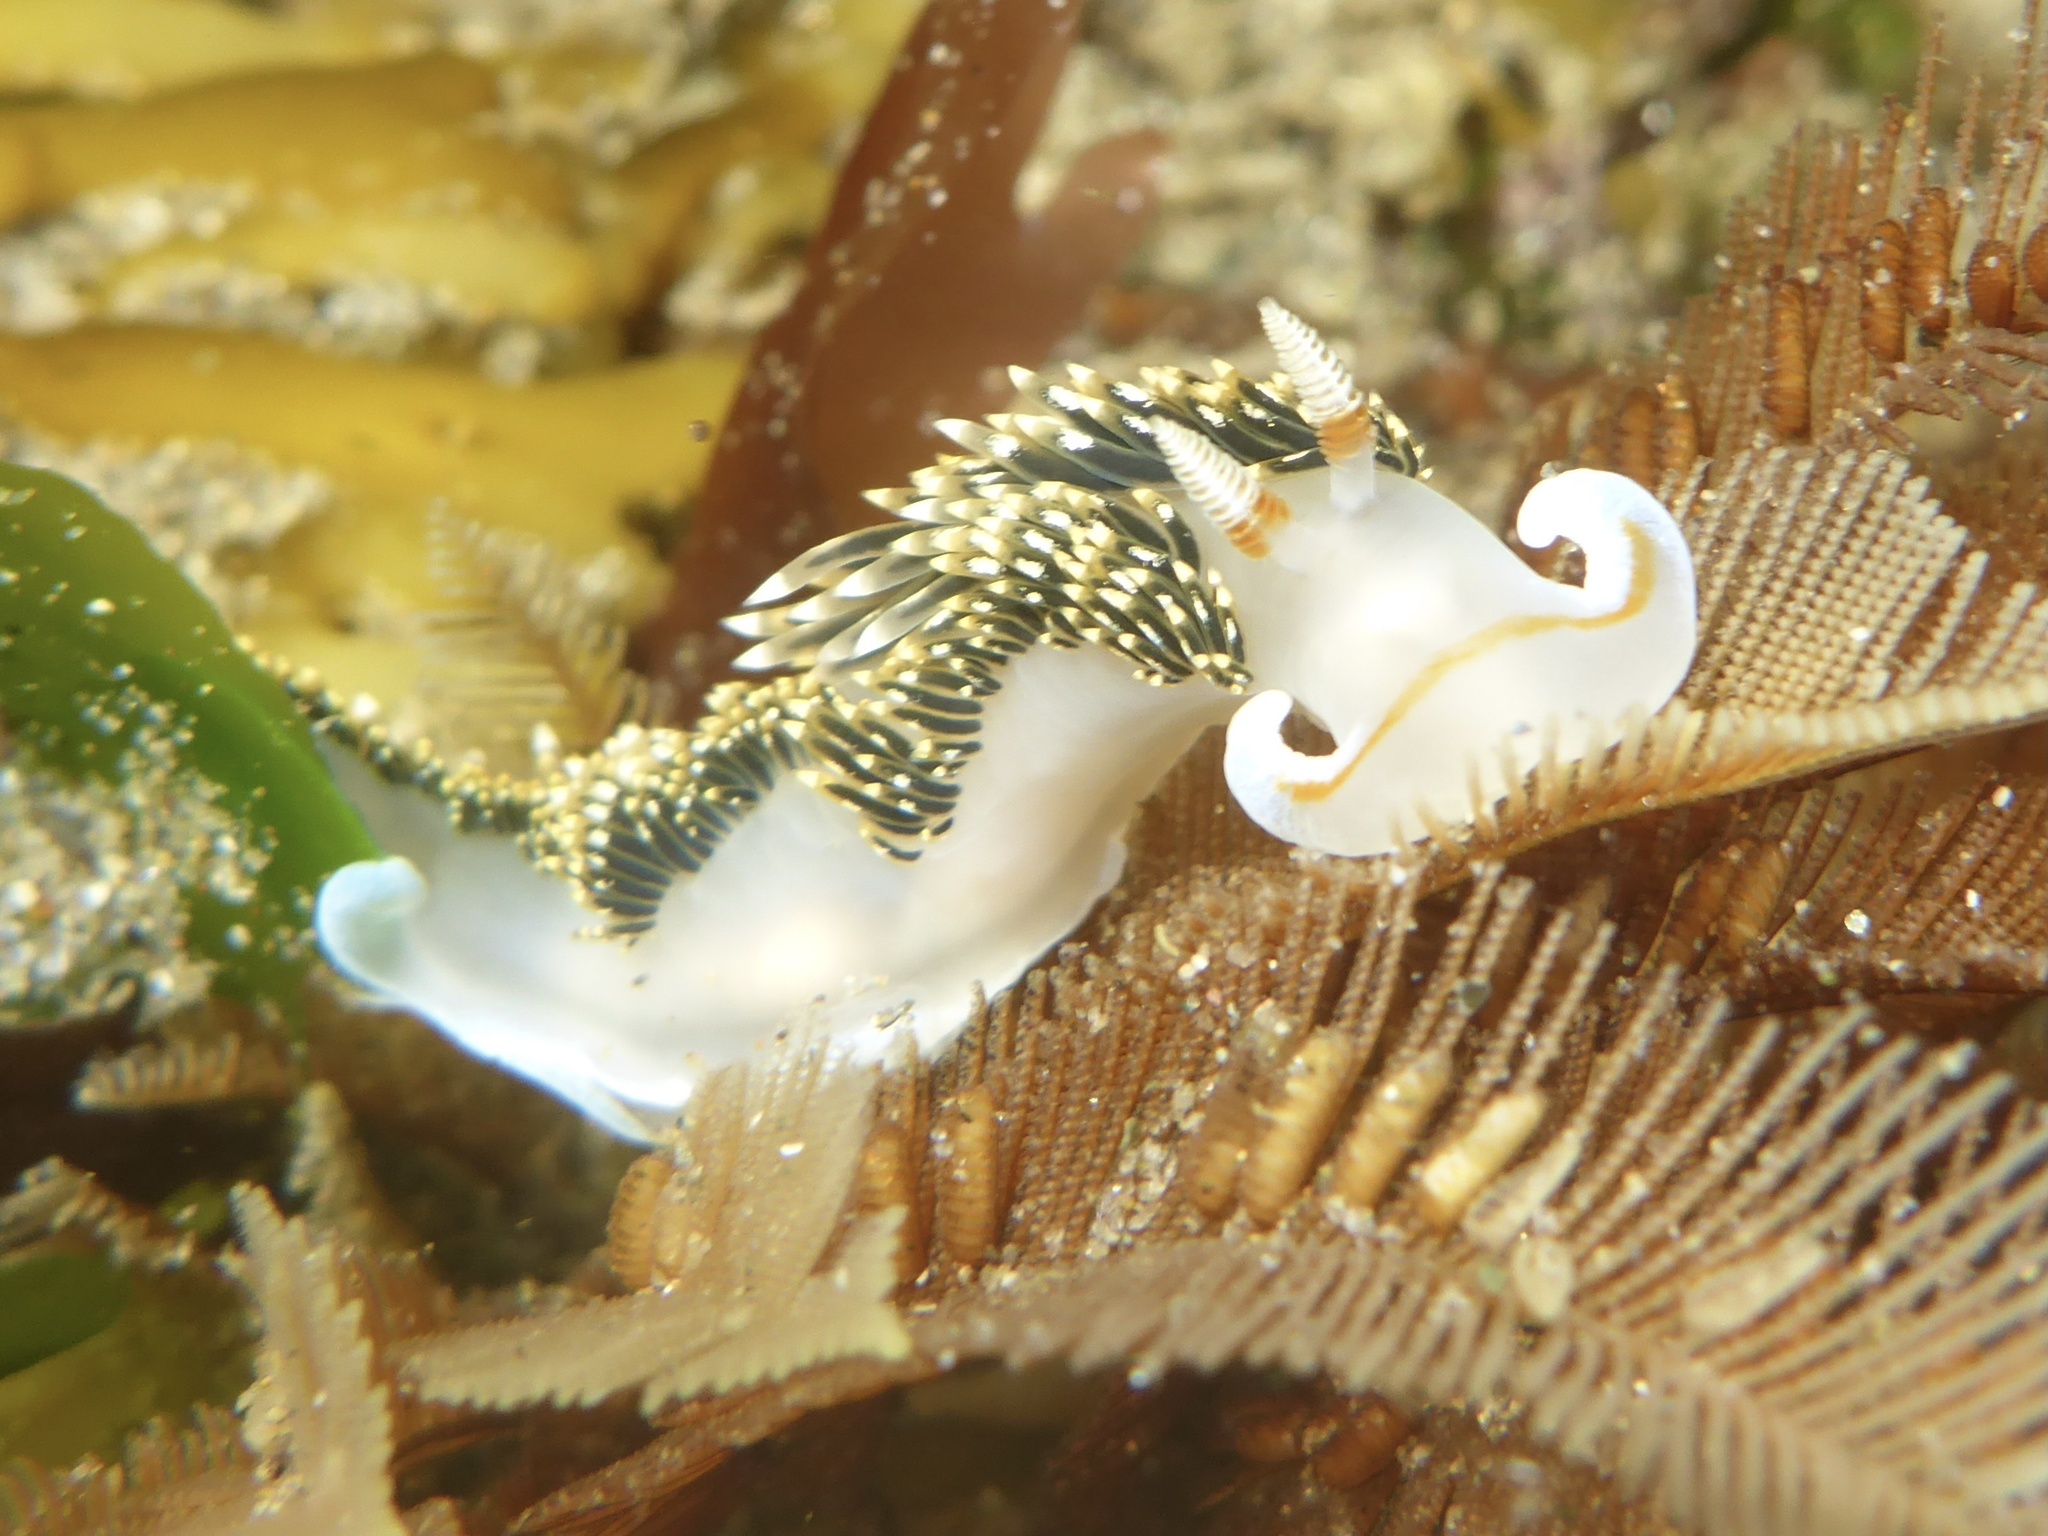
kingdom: Animalia
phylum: Mollusca
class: Gastropoda
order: Nudibranchia
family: Facelinidae
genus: Phidiana
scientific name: Phidiana hiltoni
